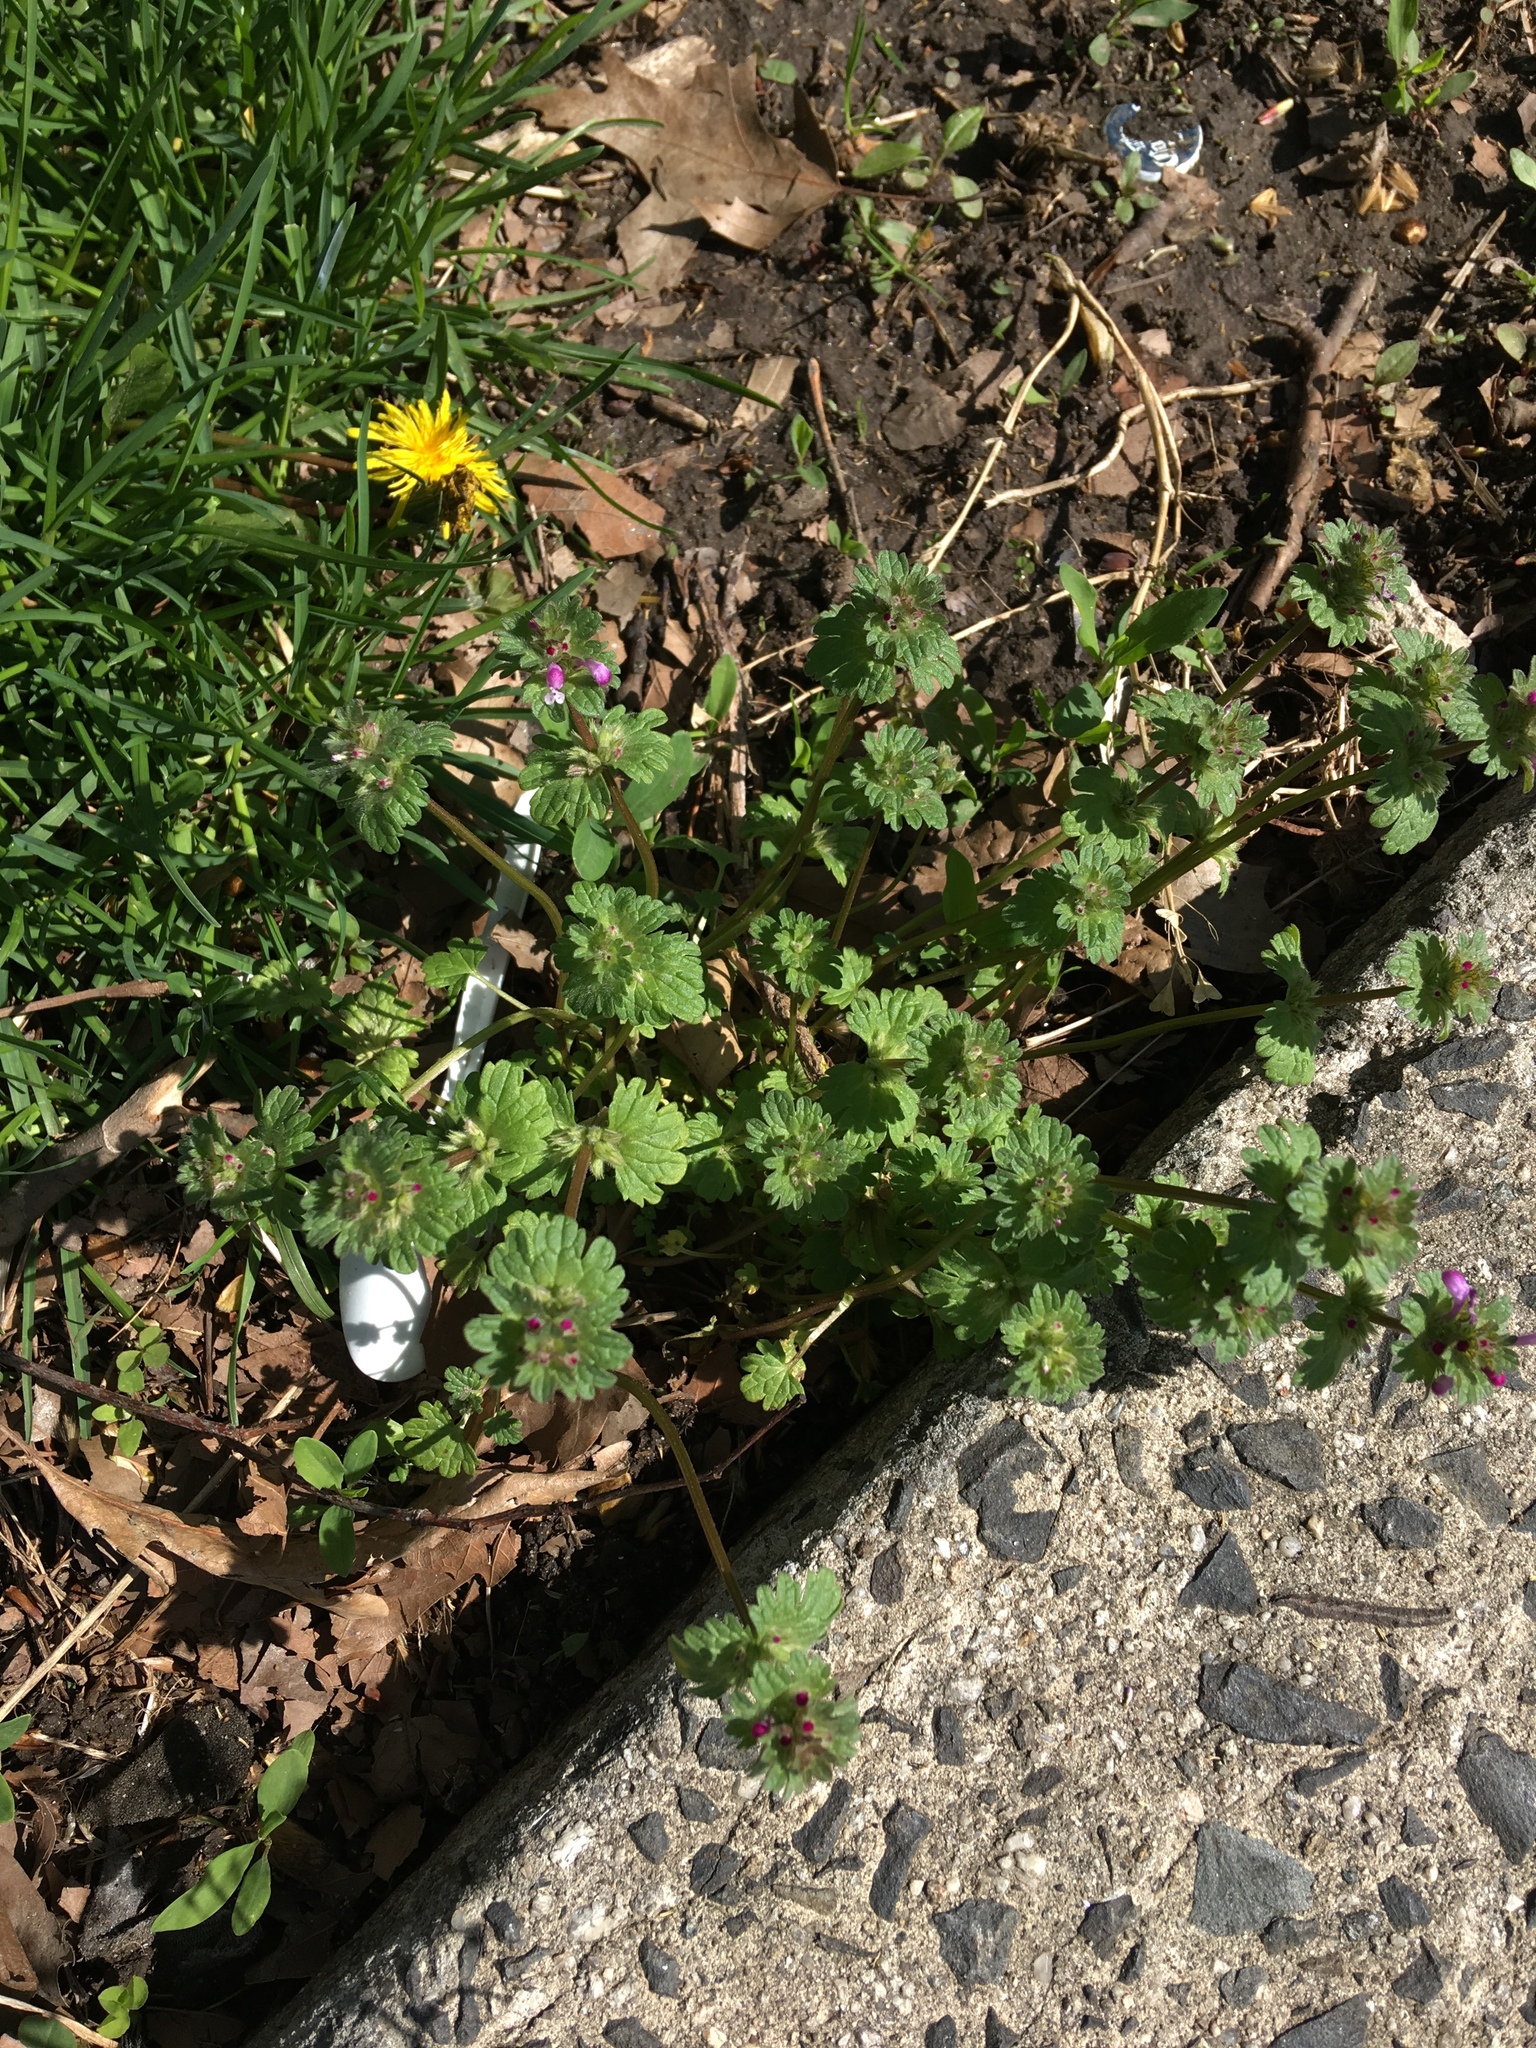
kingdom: Plantae
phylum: Tracheophyta
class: Magnoliopsida
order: Lamiales
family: Lamiaceae
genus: Lamium
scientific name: Lamium amplexicaule
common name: Henbit dead-nettle
